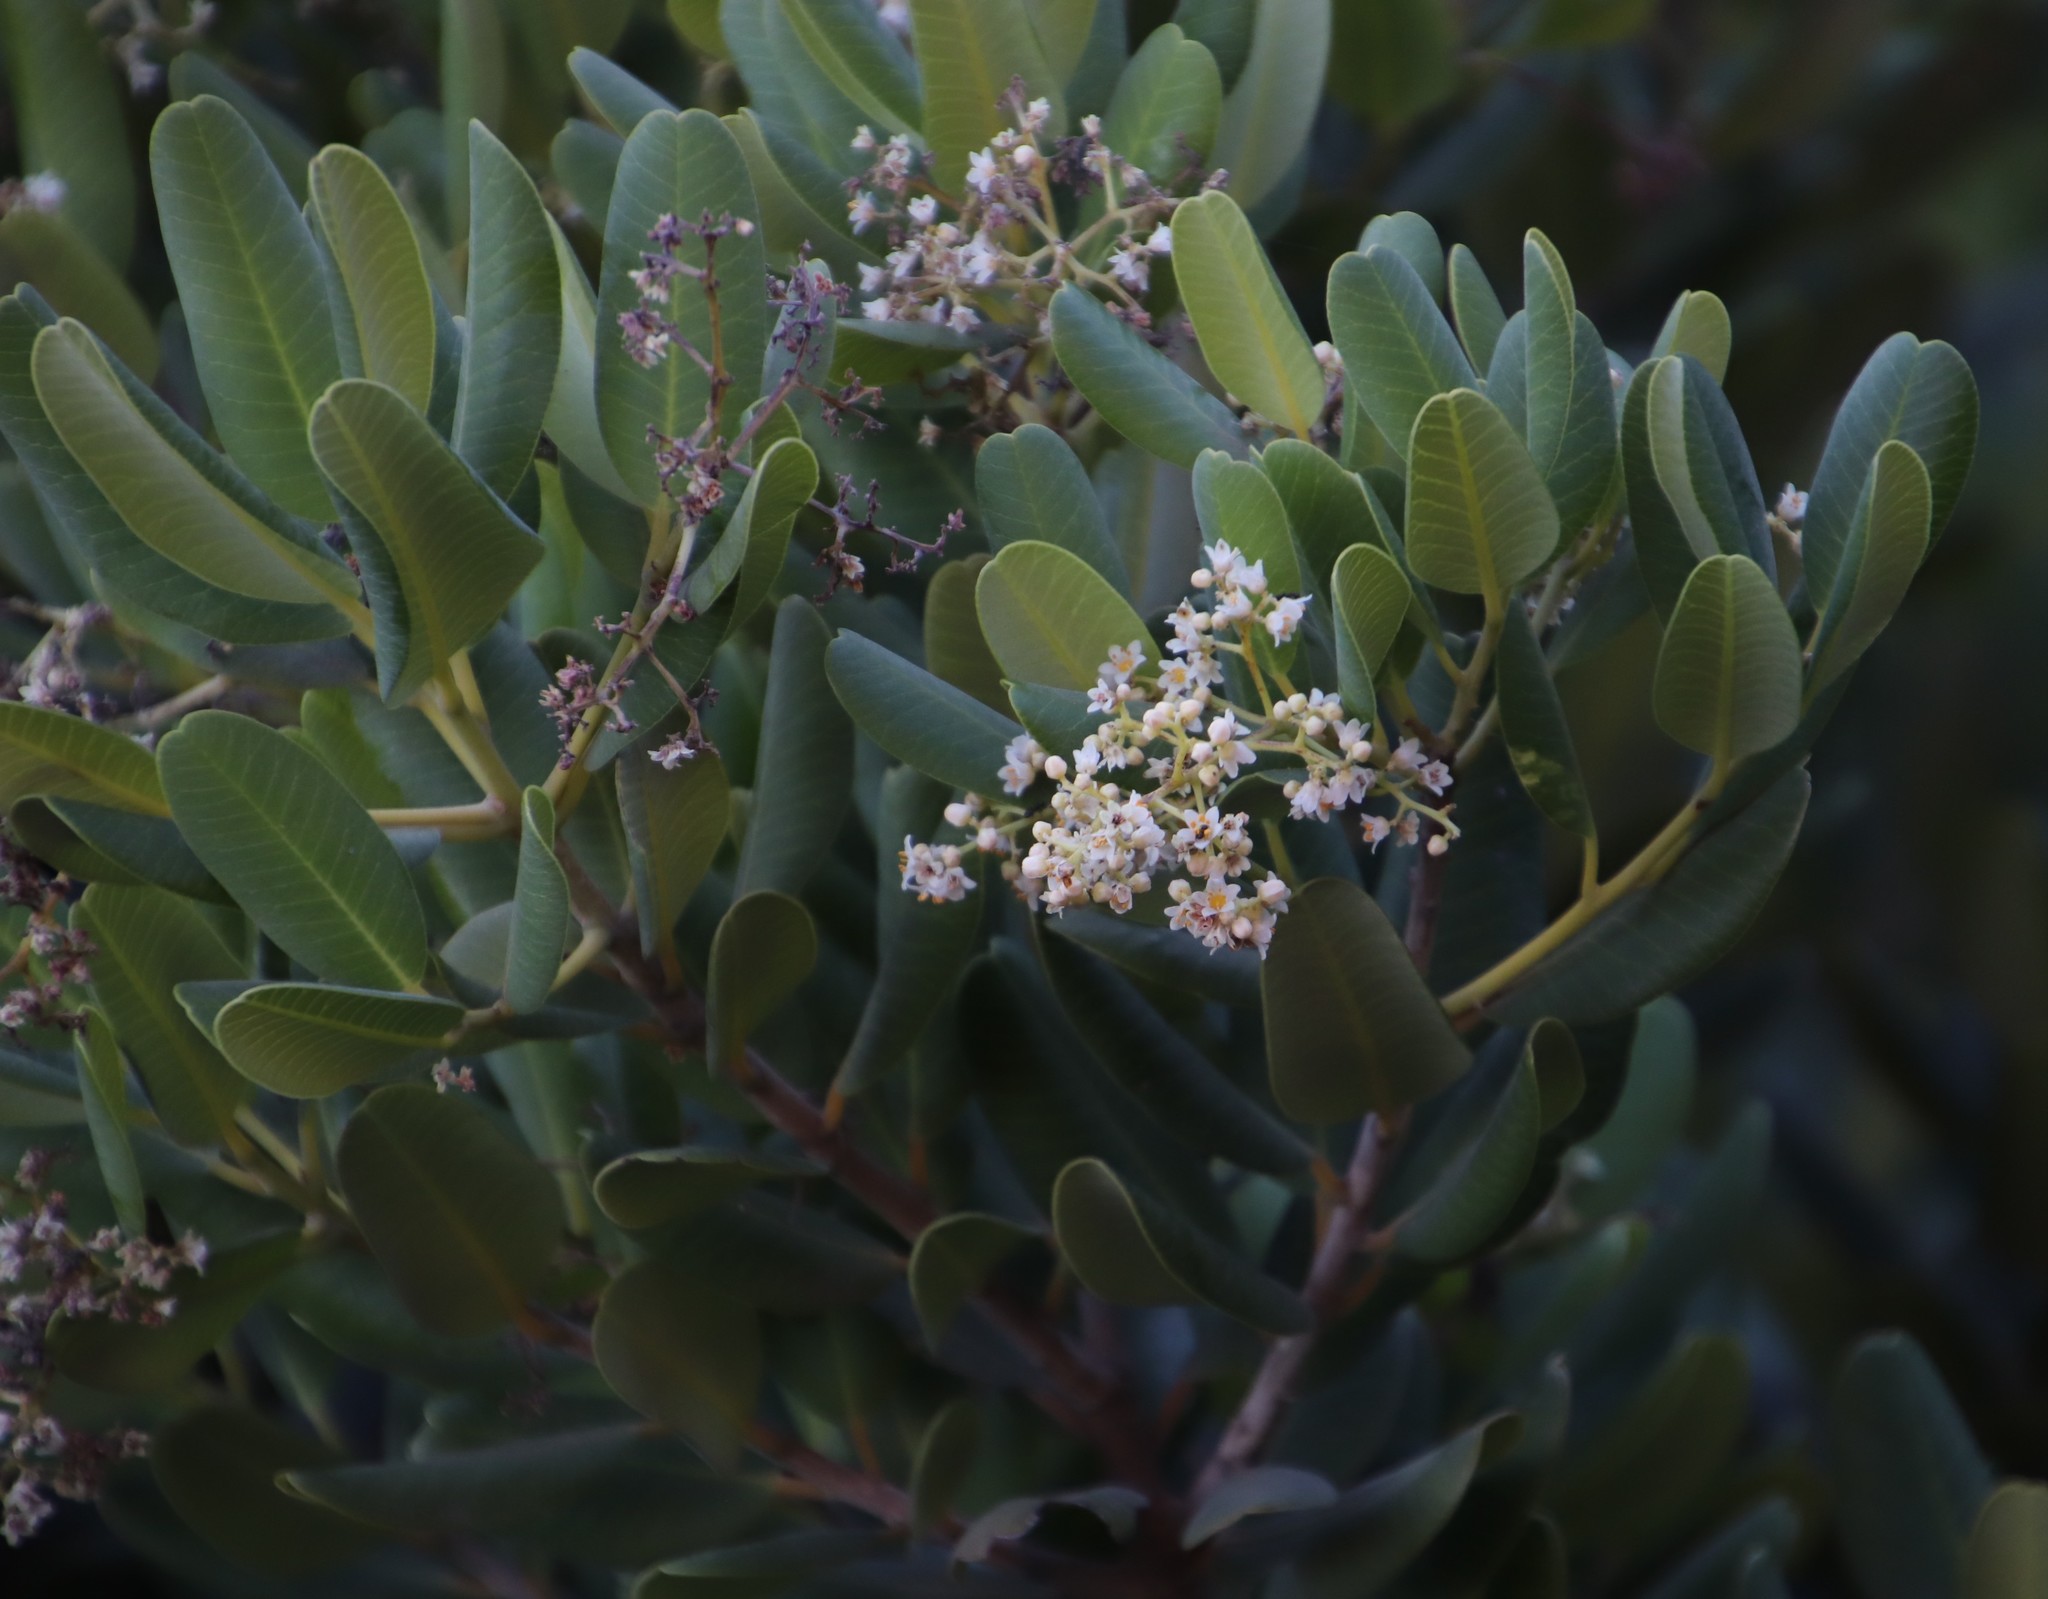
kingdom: Plantae
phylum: Tracheophyta
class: Magnoliopsida
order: Sapindales
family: Anacardiaceae
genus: Heeria
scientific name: Heeria argentea
